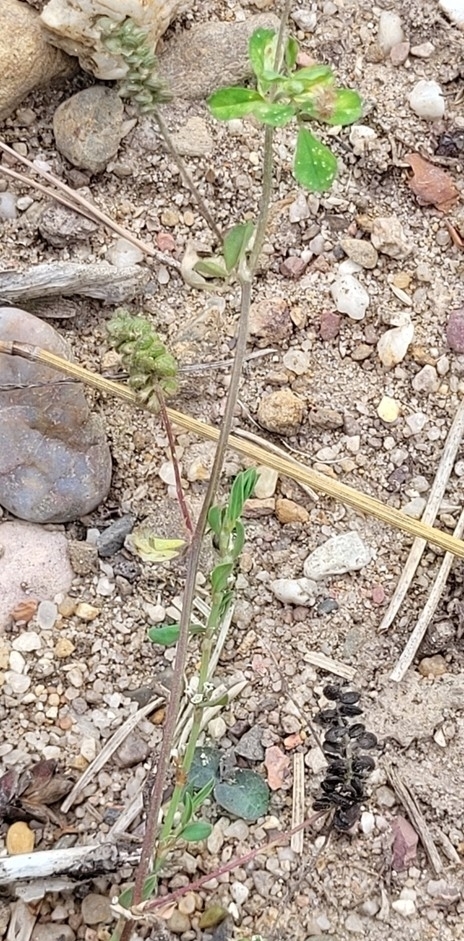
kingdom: Plantae
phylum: Tracheophyta
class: Magnoliopsida
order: Fabales
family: Fabaceae
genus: Medicago
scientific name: Medicago lupulina
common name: Black medick
